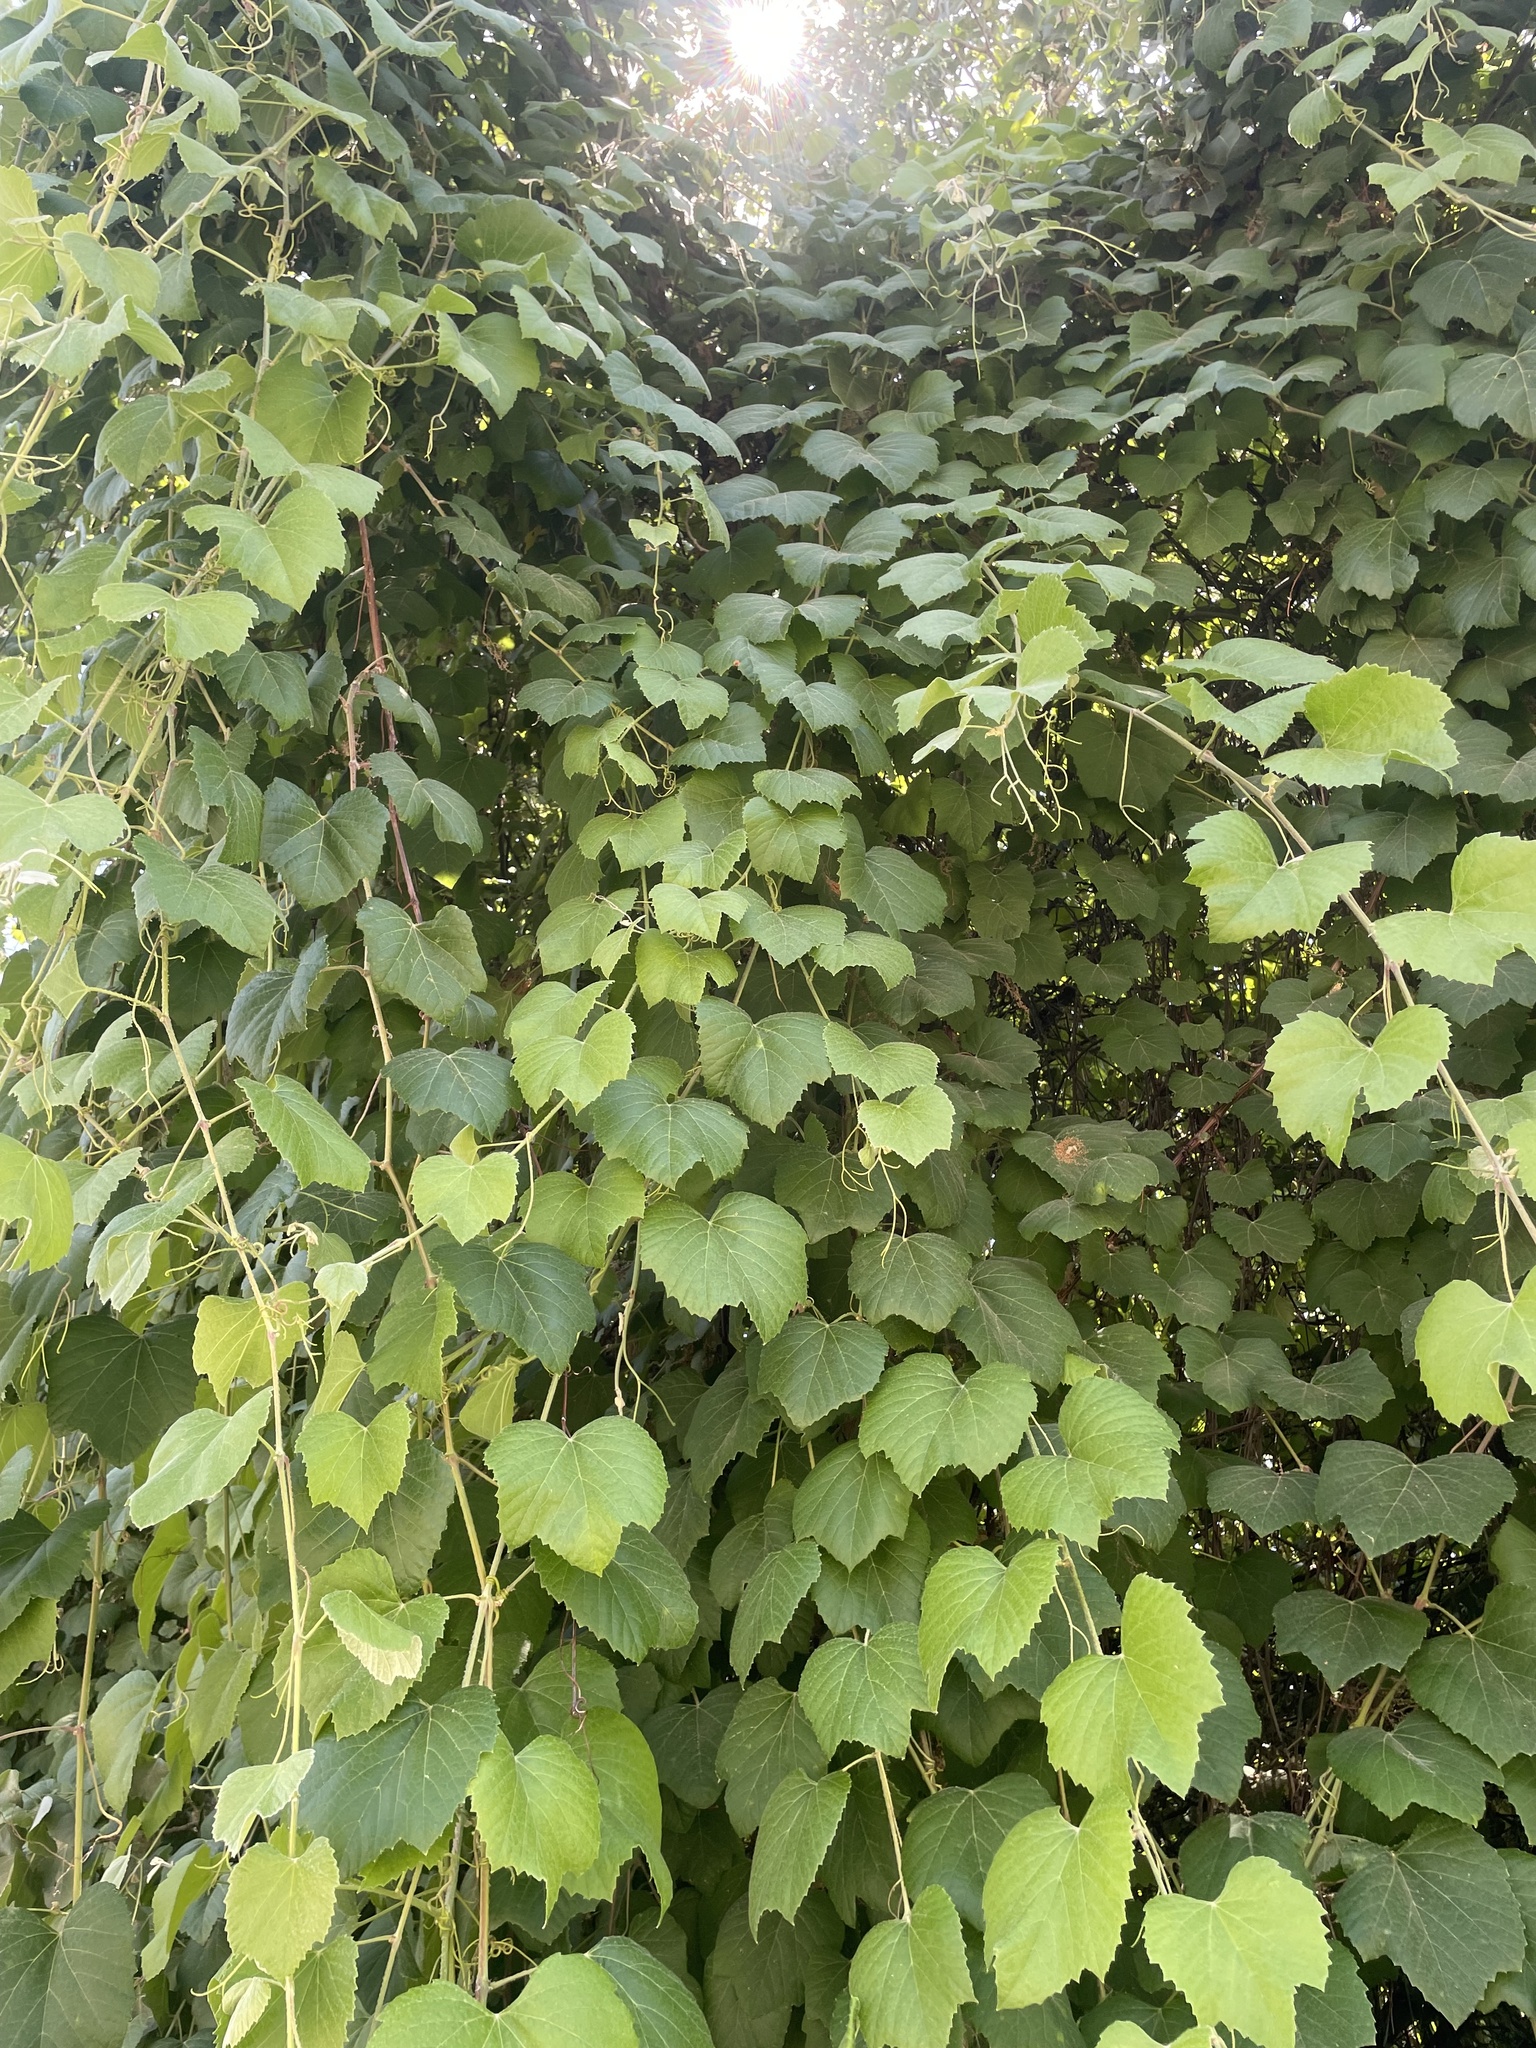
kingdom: Plantae
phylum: Tracheophyta
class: Magnoliopsida
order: Vitales
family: Vitaceae
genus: Vitis
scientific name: Vitis californica
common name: California wild grape
